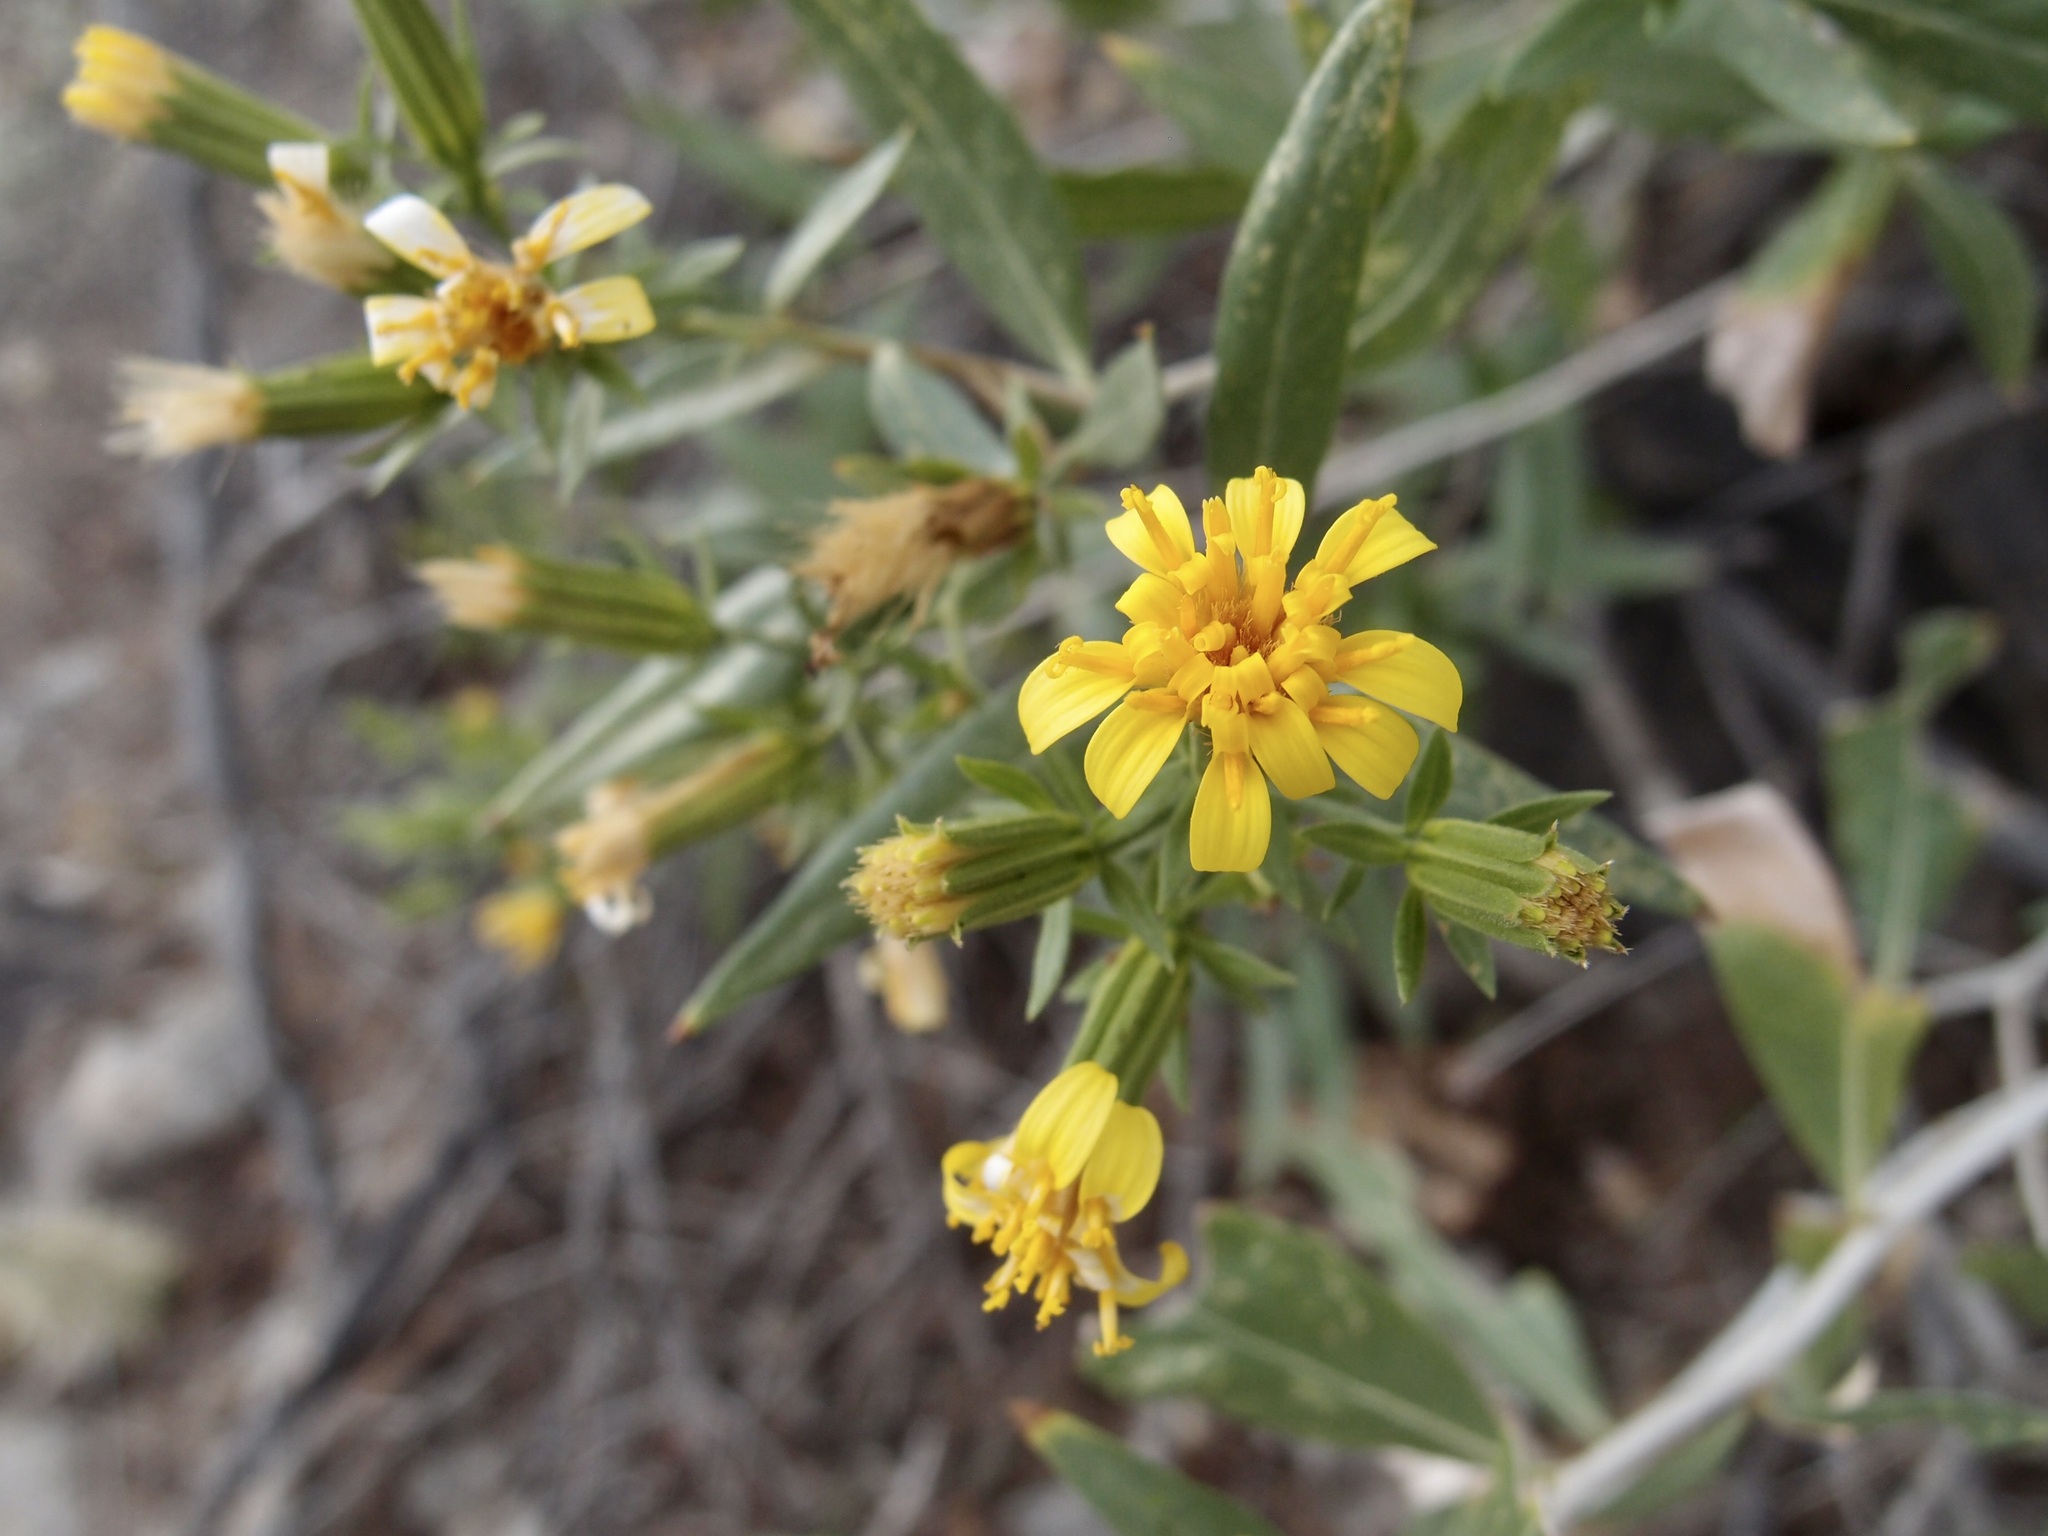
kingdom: Plantae
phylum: Tracheophyta
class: Magnoliopsida
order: Asterales
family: Asteraceae
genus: Trixis
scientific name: Trixis californica
